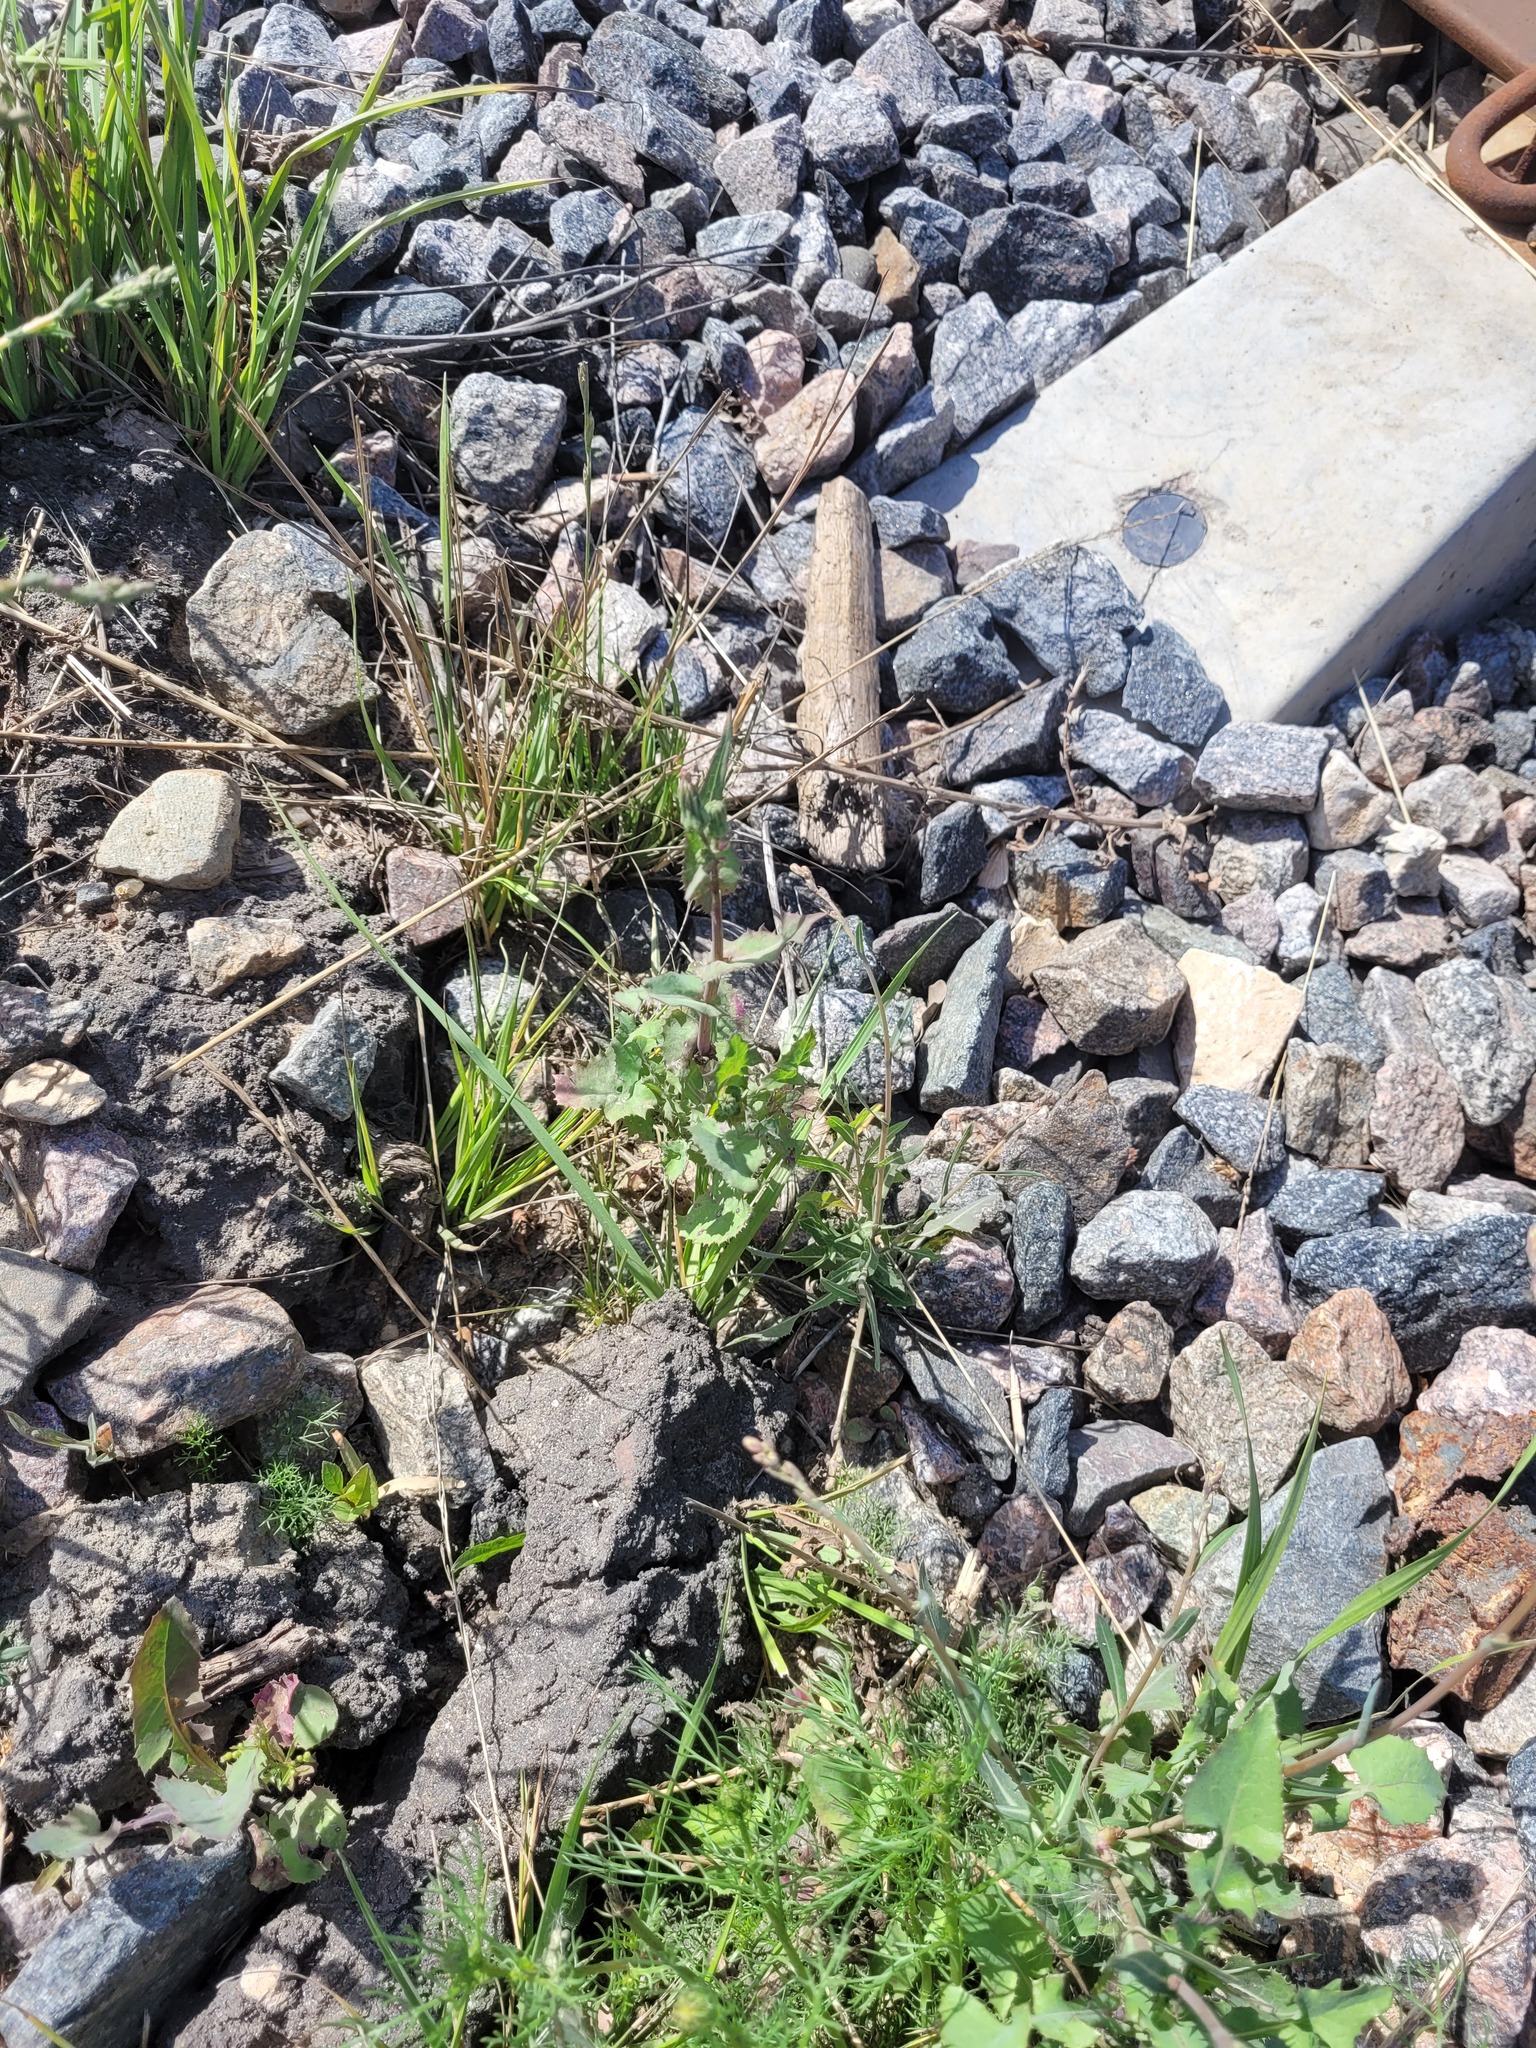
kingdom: Plantae
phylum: Tracheophyta
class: Magnoliopsida
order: Asterales
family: Asteraceae
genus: Sonchus
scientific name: Sonchus oleraceus
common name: Common sowthistle
